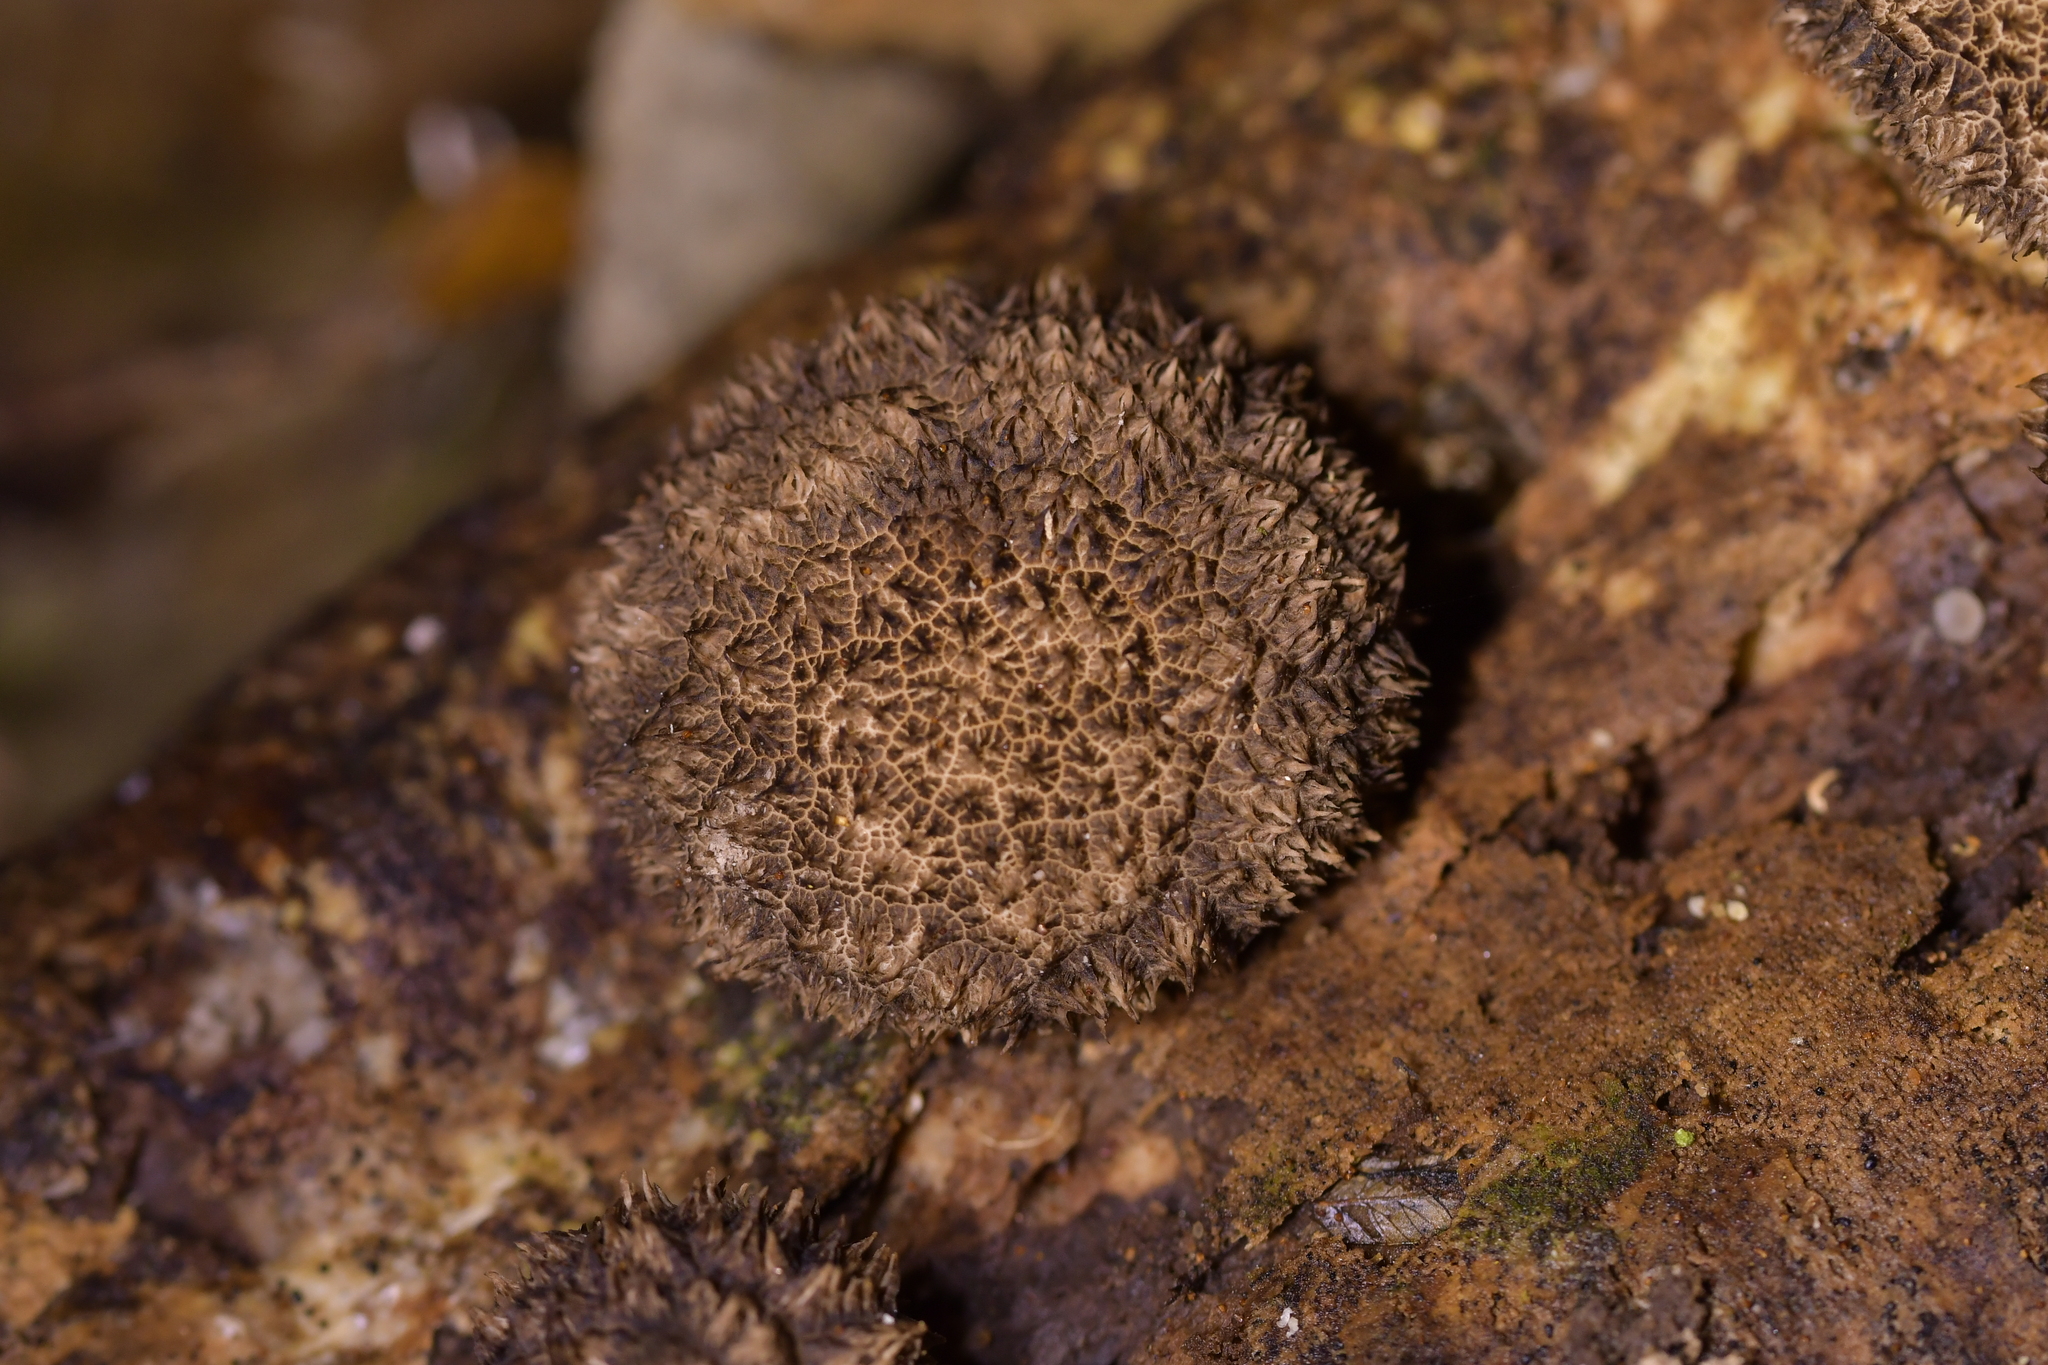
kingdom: Fungi
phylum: Basidiomycota
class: Agaricomycetes
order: Agaricales
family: Lycoperdaceae
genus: Lycoperdon
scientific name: Lycoperdon compactum
